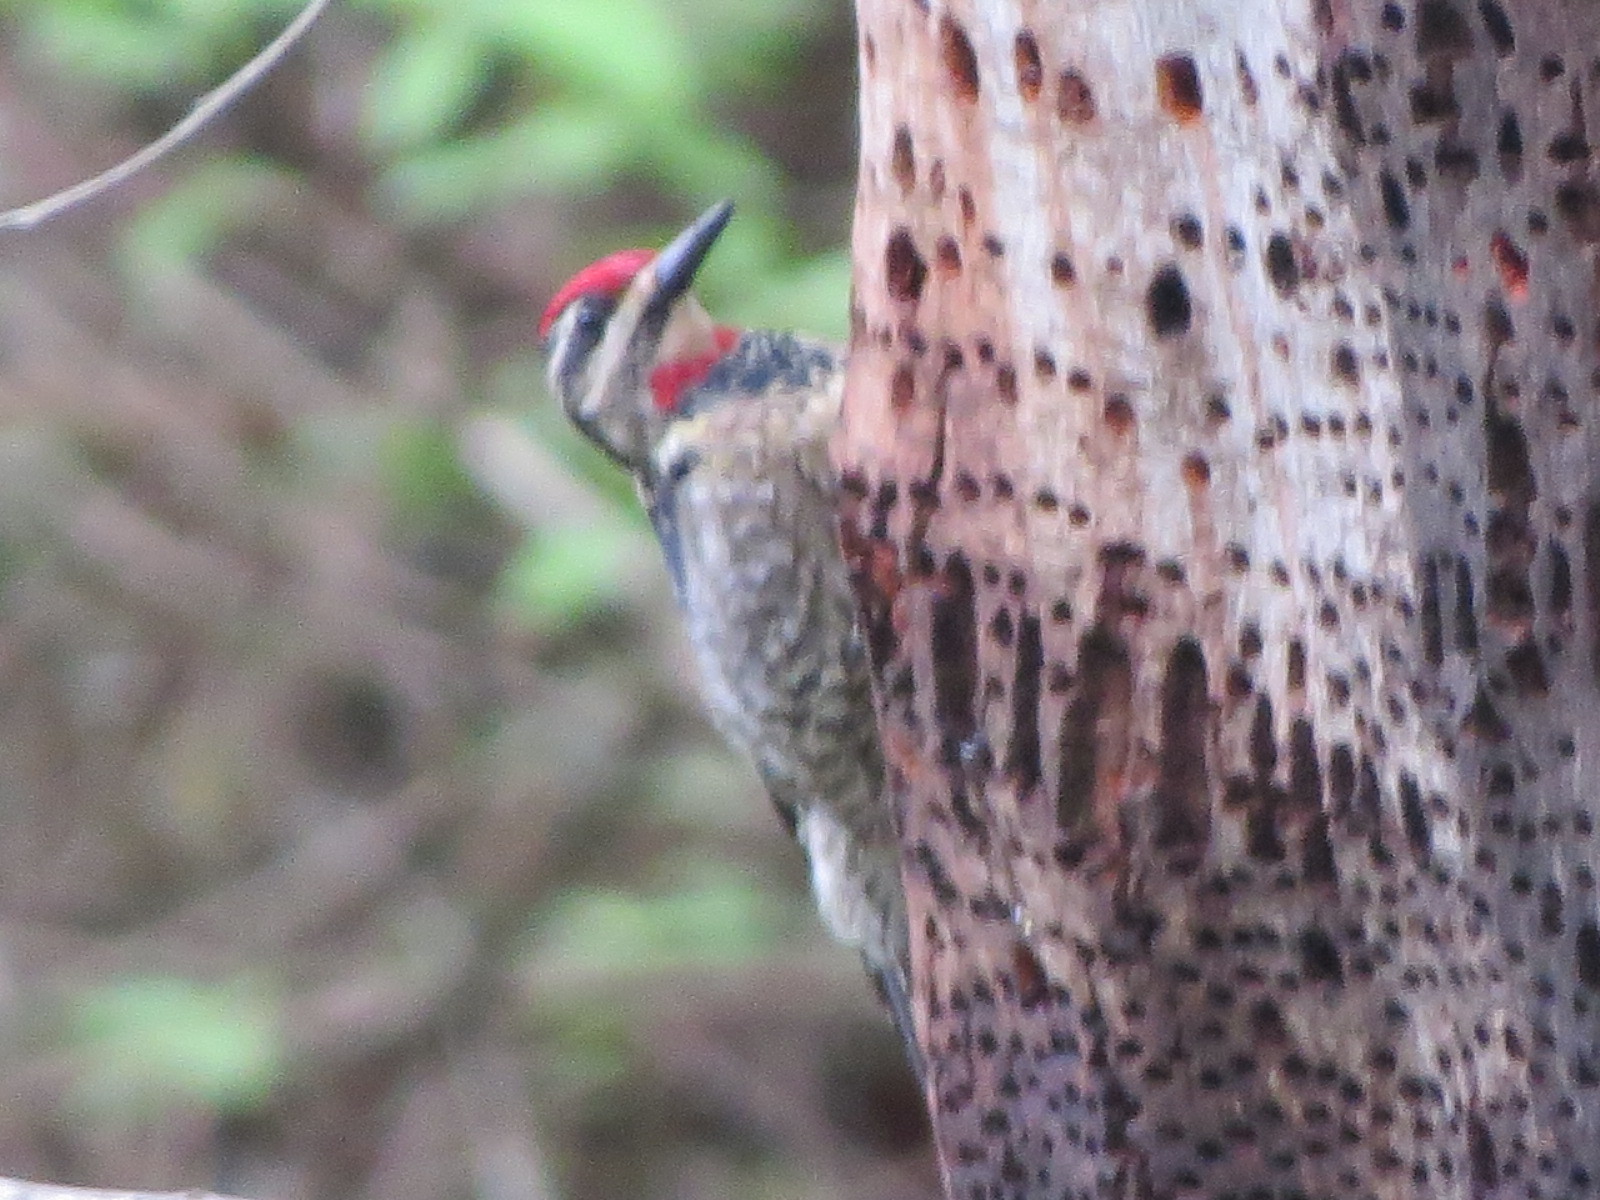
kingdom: Animalia
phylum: Chordata
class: Aves
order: Piciformes
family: Picidae
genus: Sphyrapicus
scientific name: Sphyrapicus nuchalis
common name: Red-naped sapsucker
